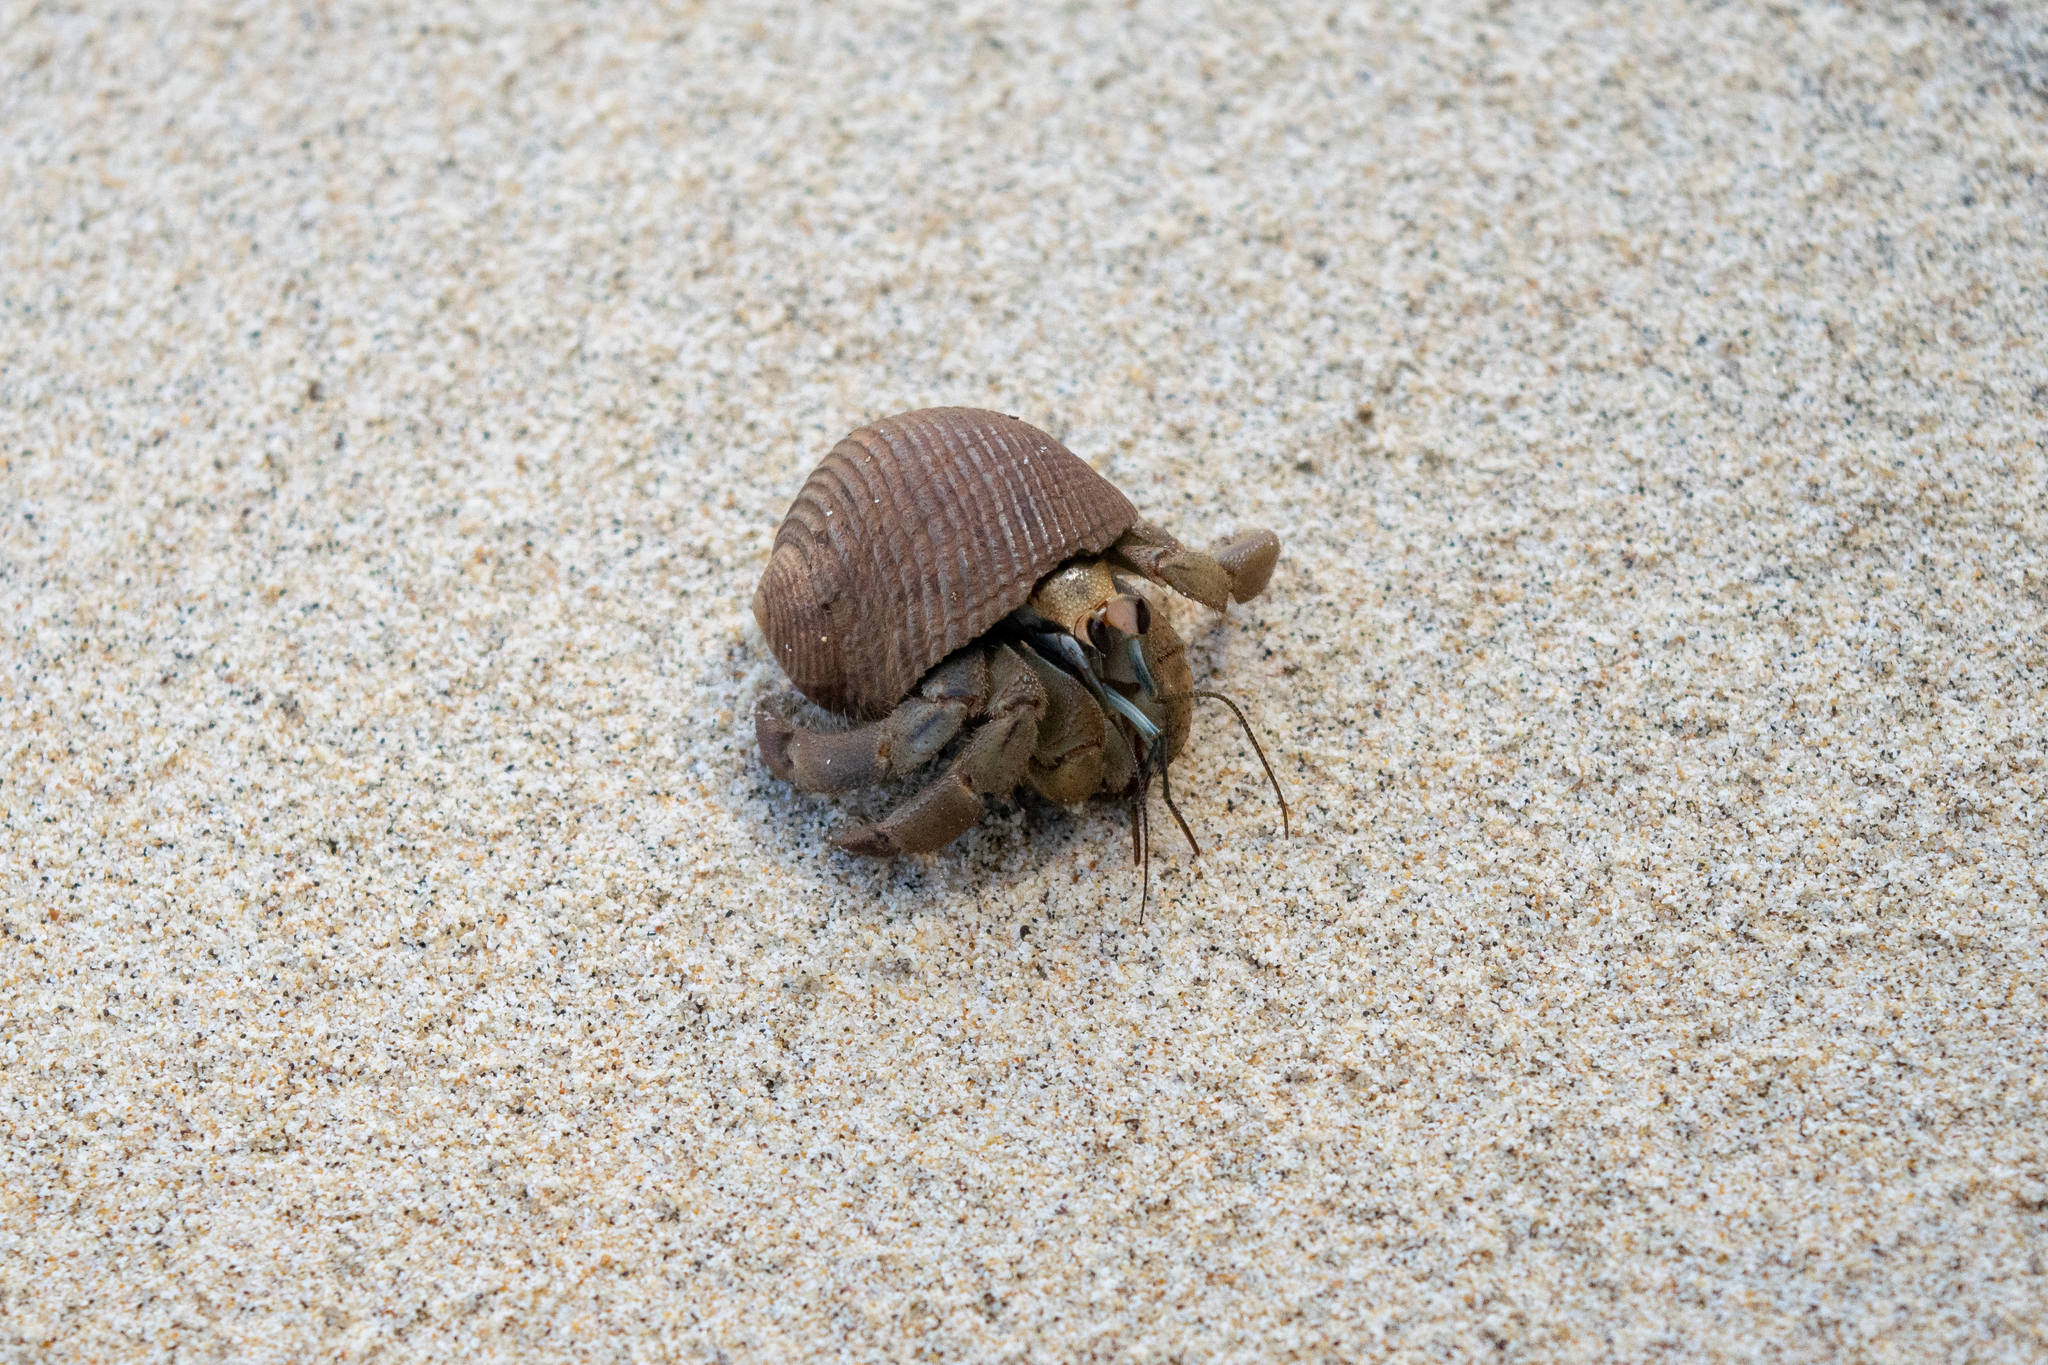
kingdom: Animalia
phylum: Arthropoda
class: Malacostraca
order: Decapoda
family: Coenobitidae
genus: Coenobita
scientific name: Coenobita compressus
